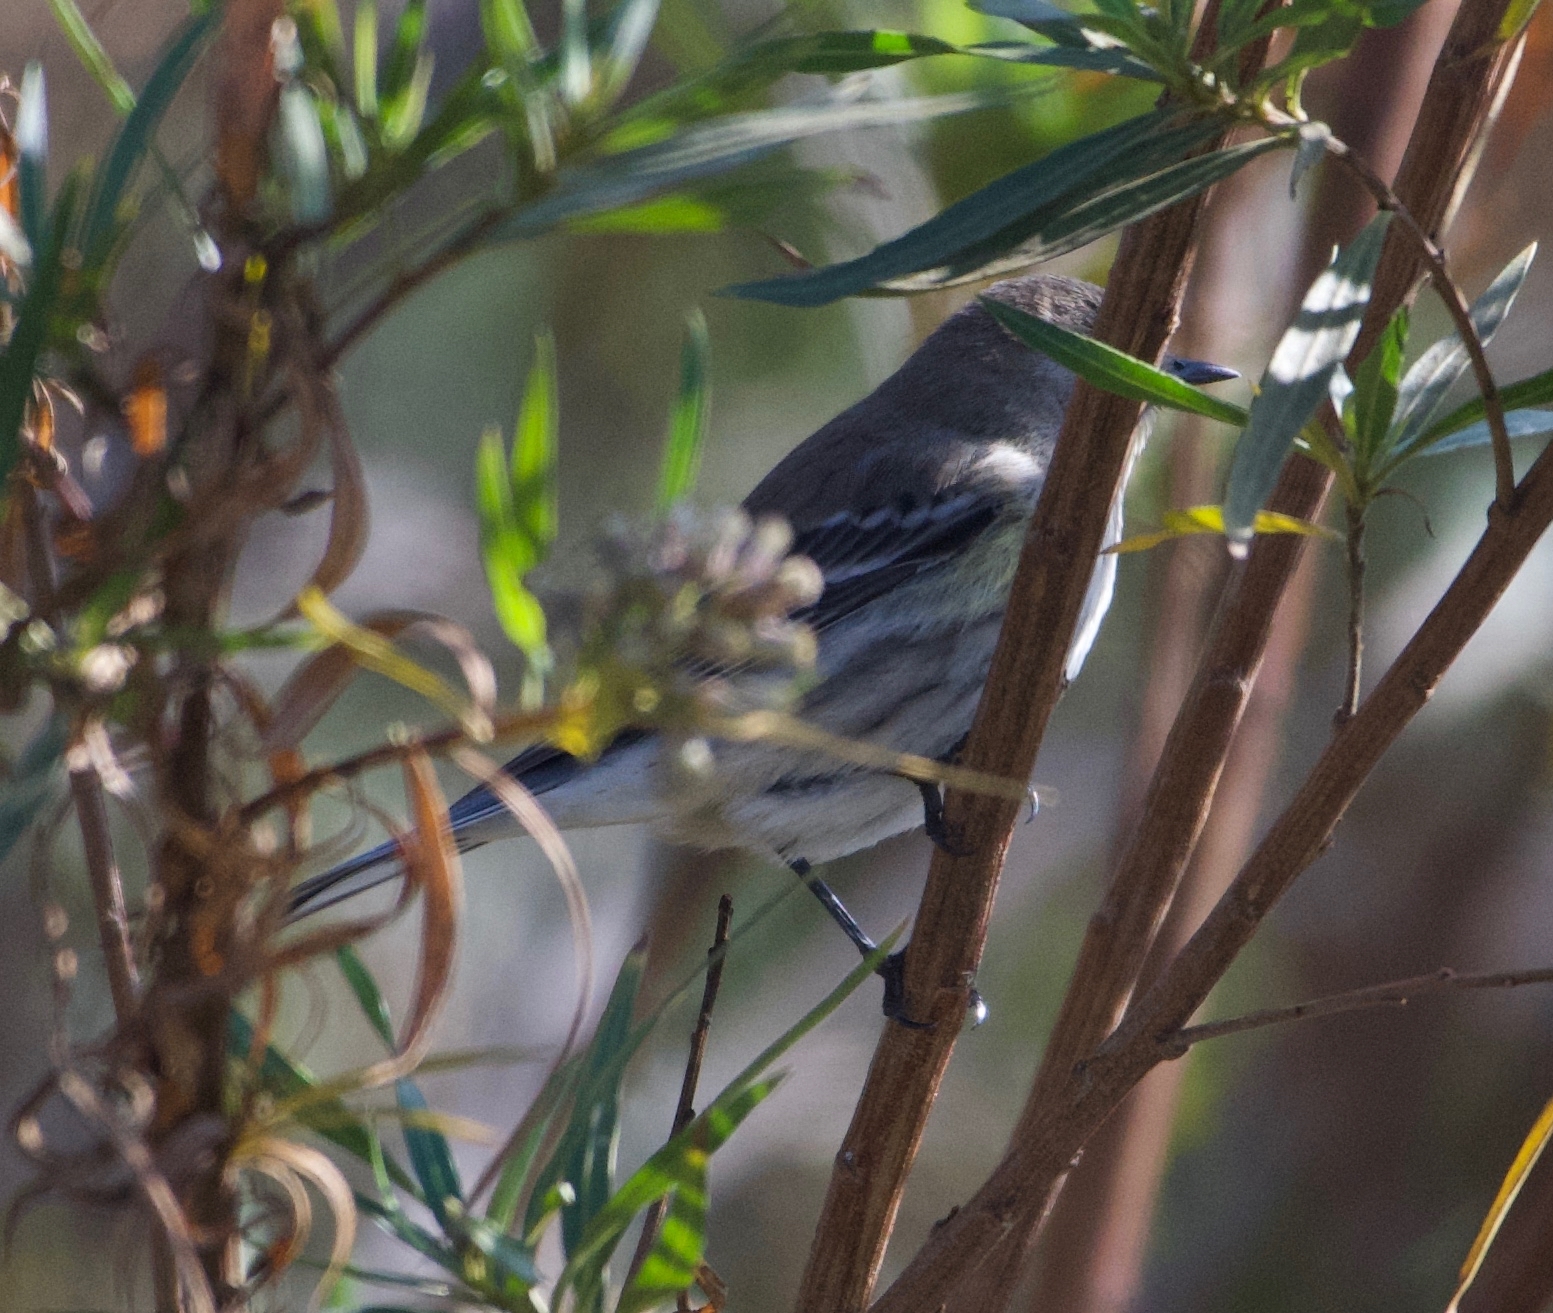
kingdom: Animalia
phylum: Chordata
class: Aves
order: Passeriformes
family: Parulidae
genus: Setophaga
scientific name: Setophaga coronata
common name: Myrtle warbler
